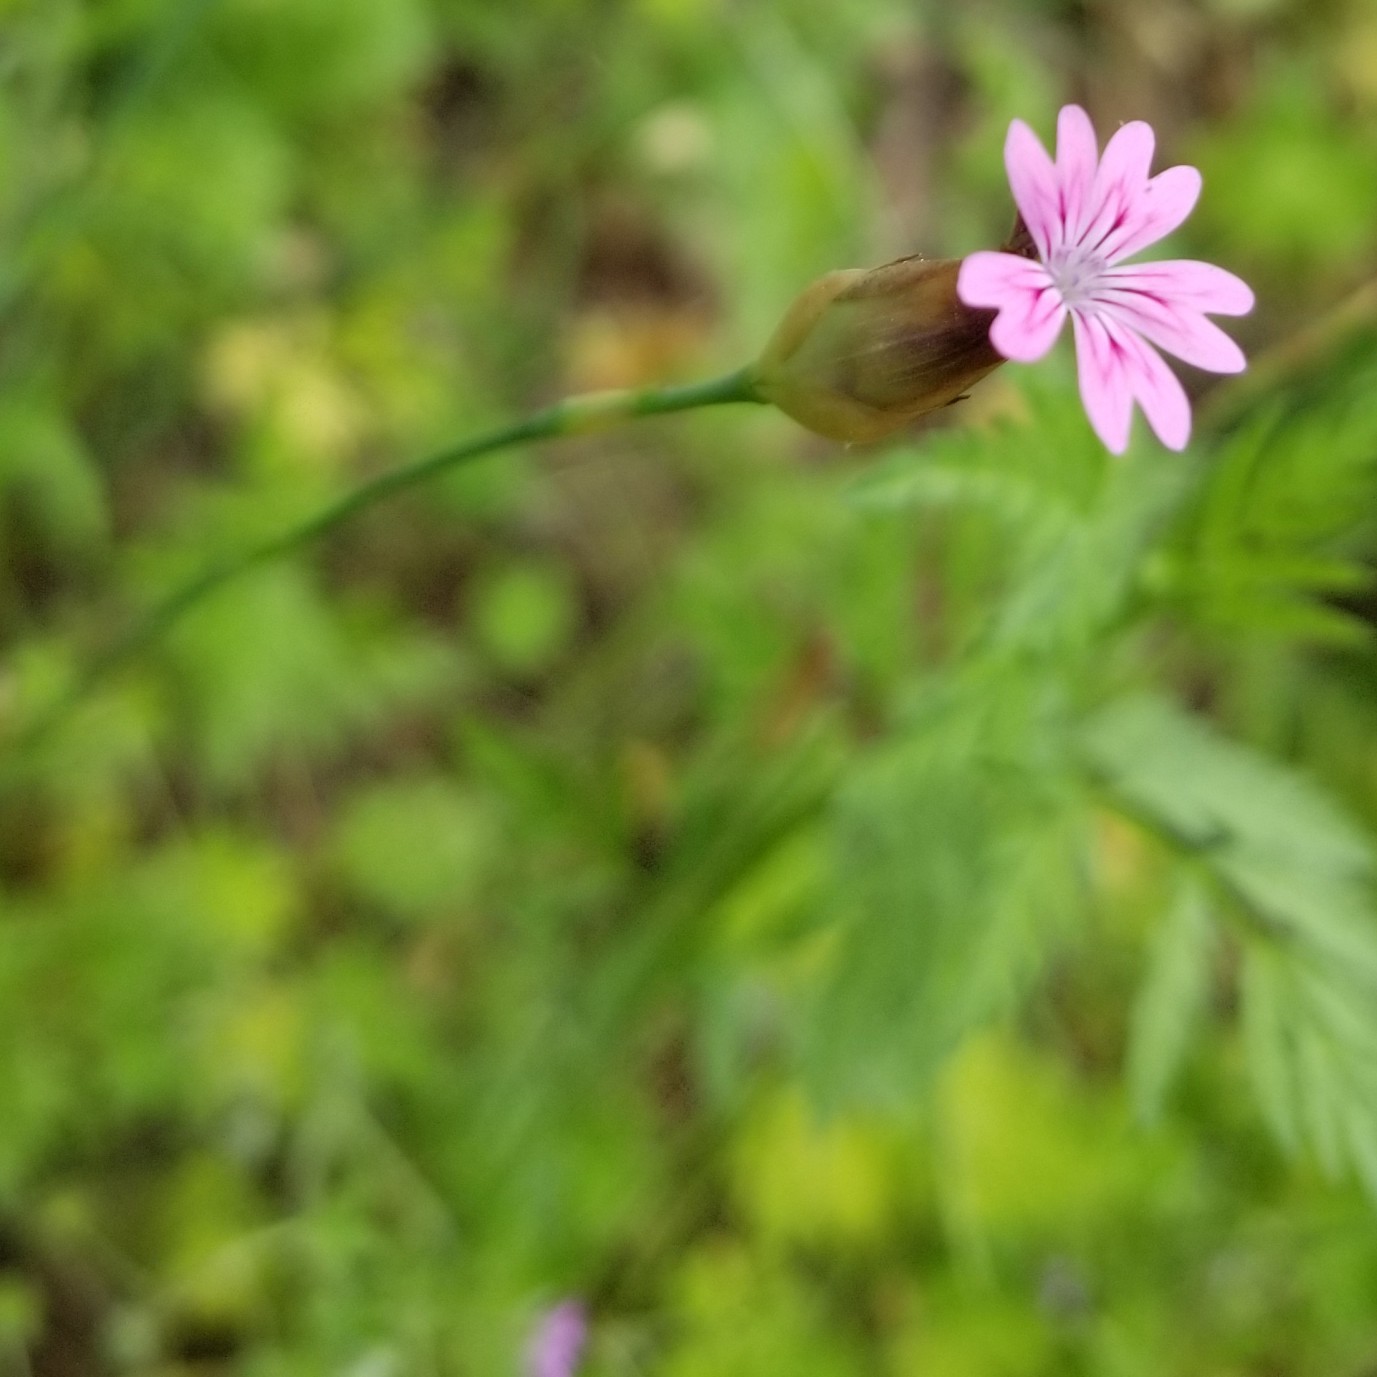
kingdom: Plantae
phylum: Tracheophyta
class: Magnoliopsida
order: Caryophyllales
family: Caryophyllaceae
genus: Petrorhagia
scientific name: Petrorhagia dubia
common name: Hairypink
